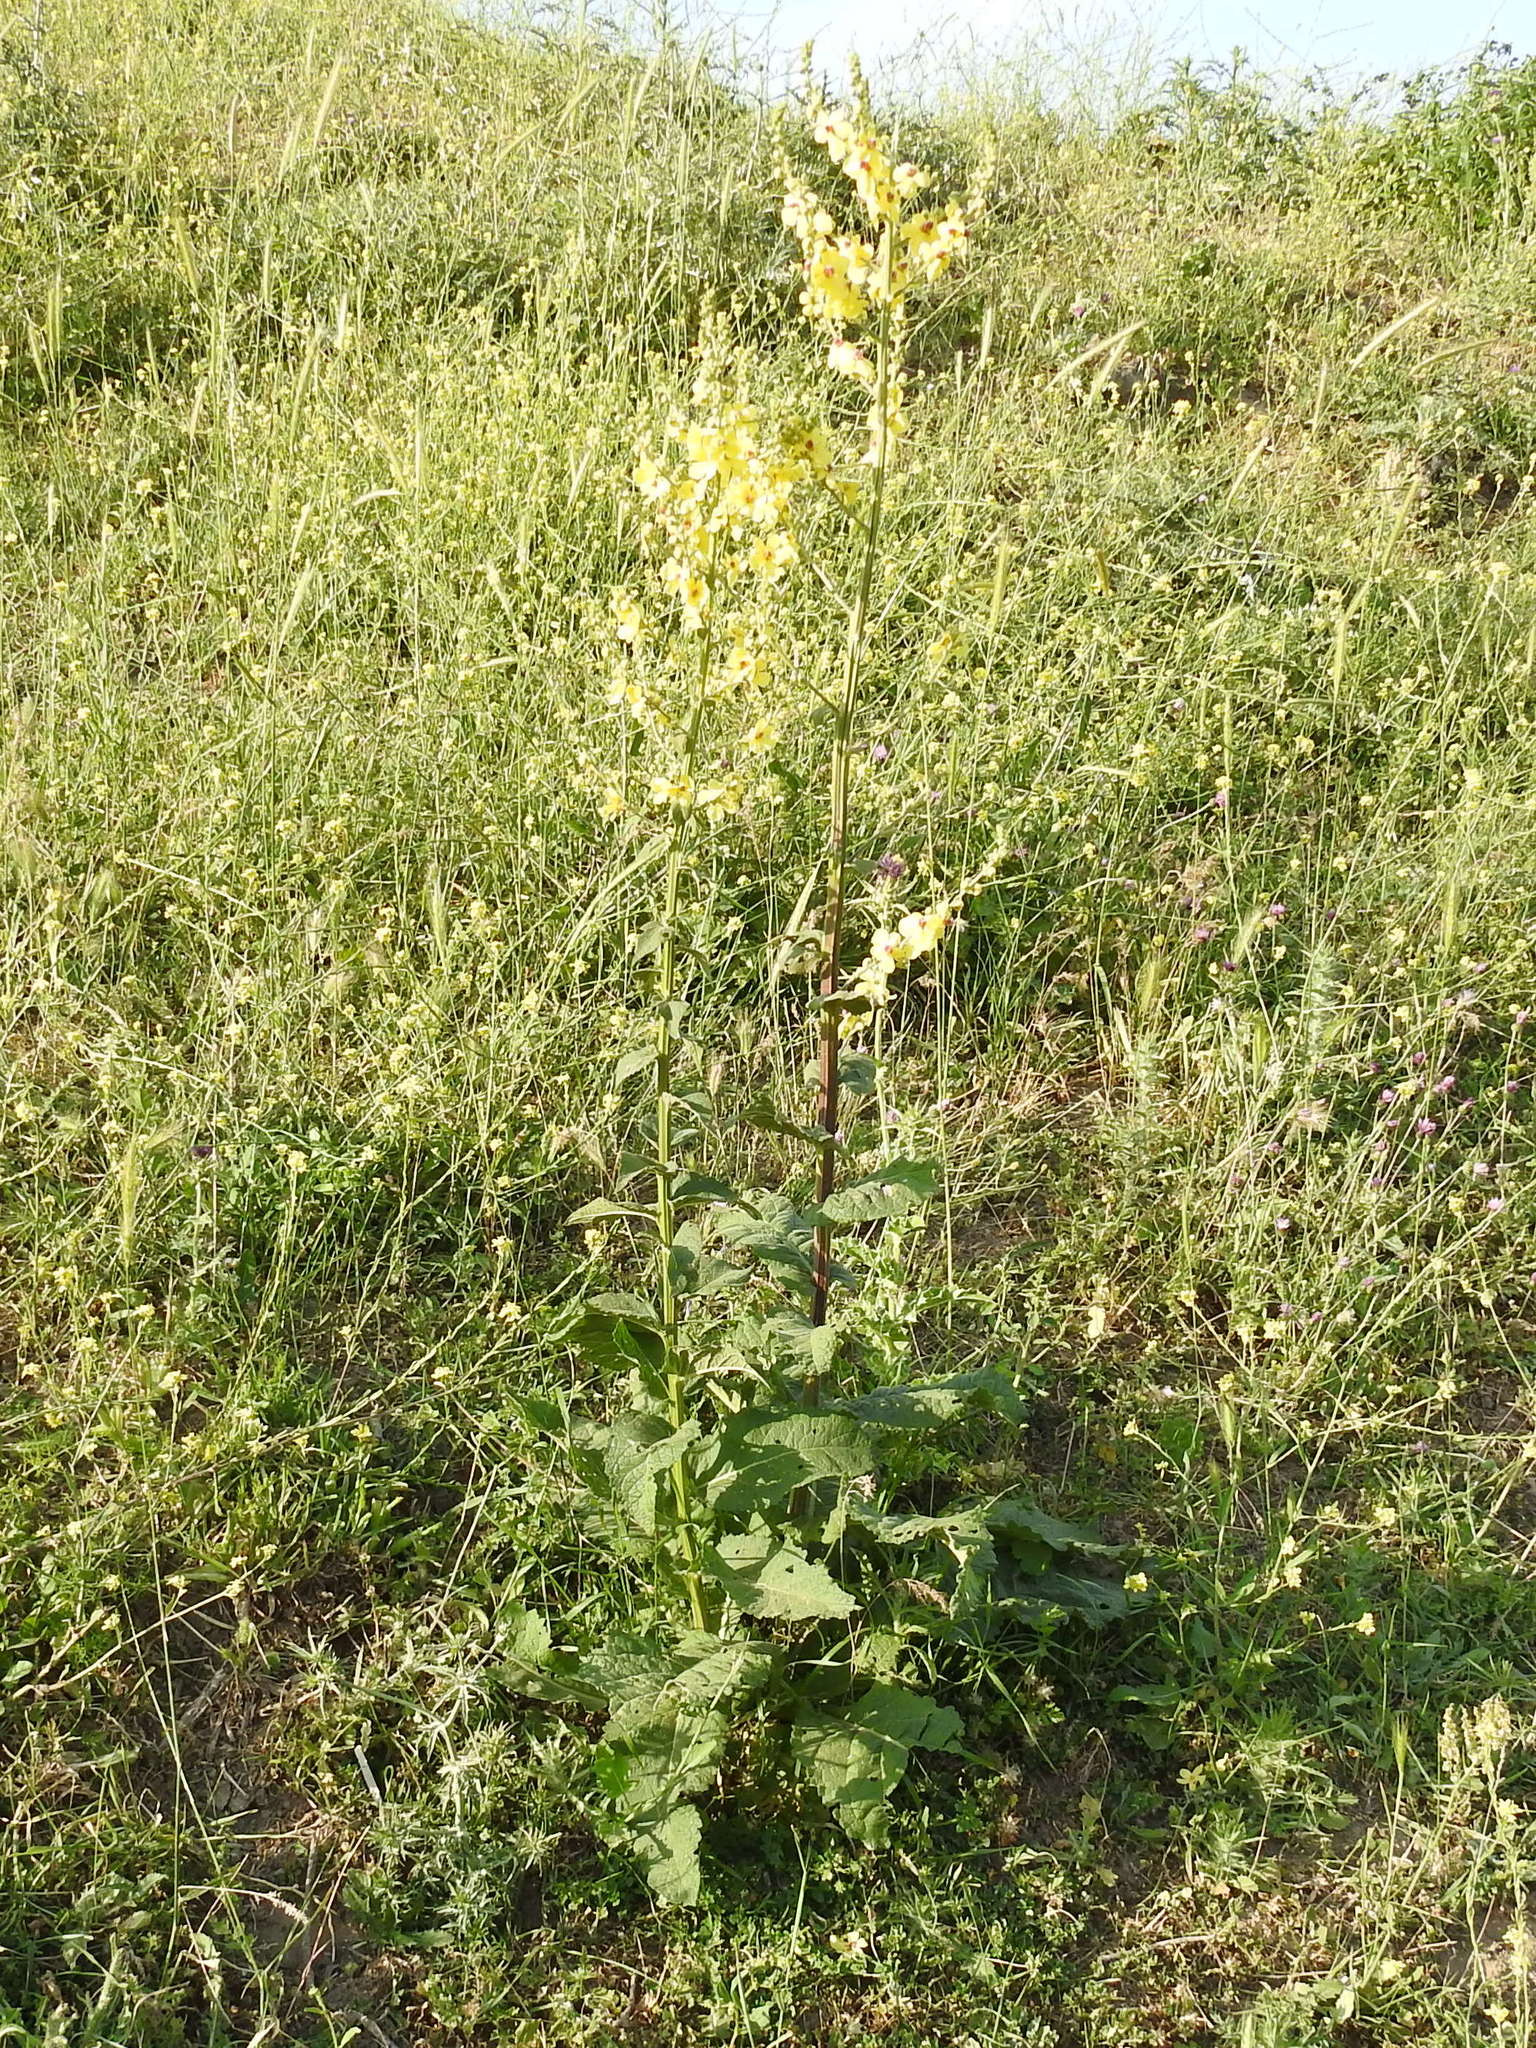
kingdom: Plantae
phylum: Tracheophyta
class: Magnoliopsida
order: Lamiales
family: Scrophulariaceae
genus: Verbascum
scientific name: Verbascum pyramidatum
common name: Caucasian mullein
